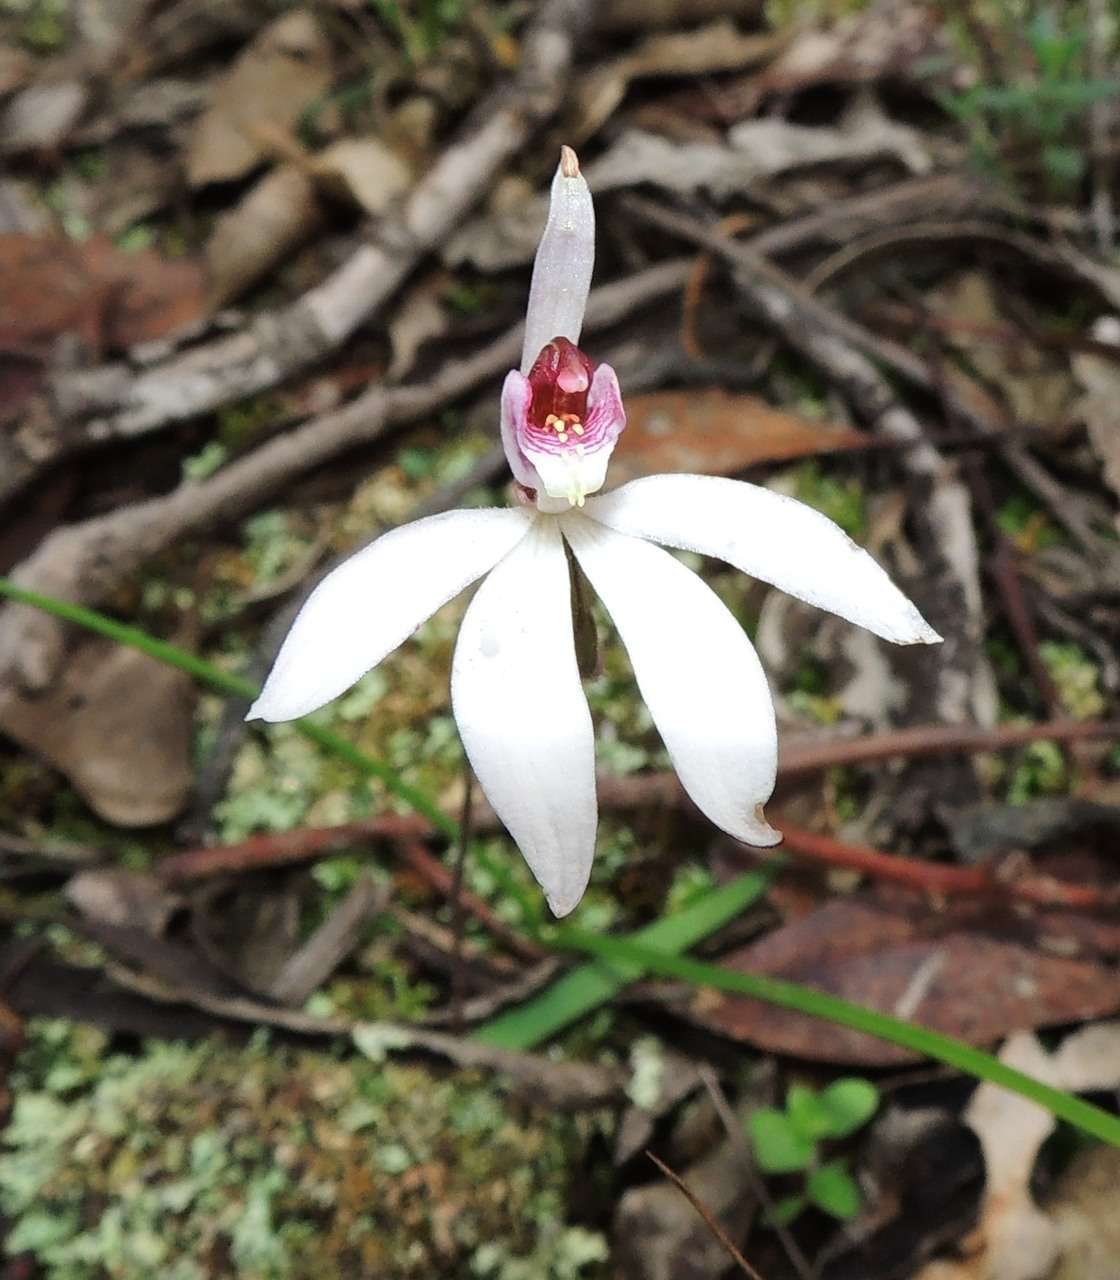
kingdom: Plantae
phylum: Tracheophyta
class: Liliopsida
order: Asparagales
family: Orchidaceae
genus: Caladenia
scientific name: Caladenia caerulea
